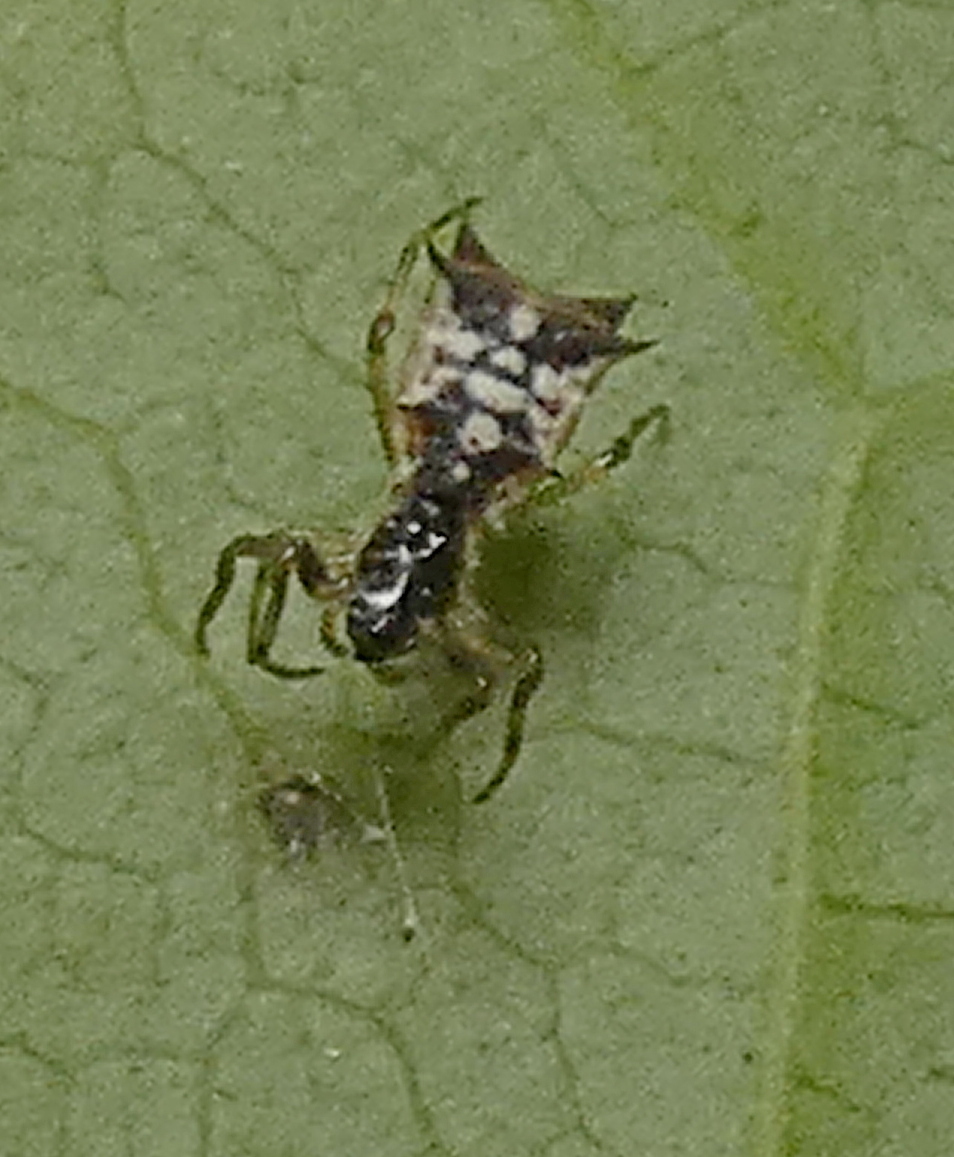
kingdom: Animalia
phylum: Arthropoda
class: Arachnida
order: Araneae
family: Araneidae
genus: Micrathena
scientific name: Micrathena picta
